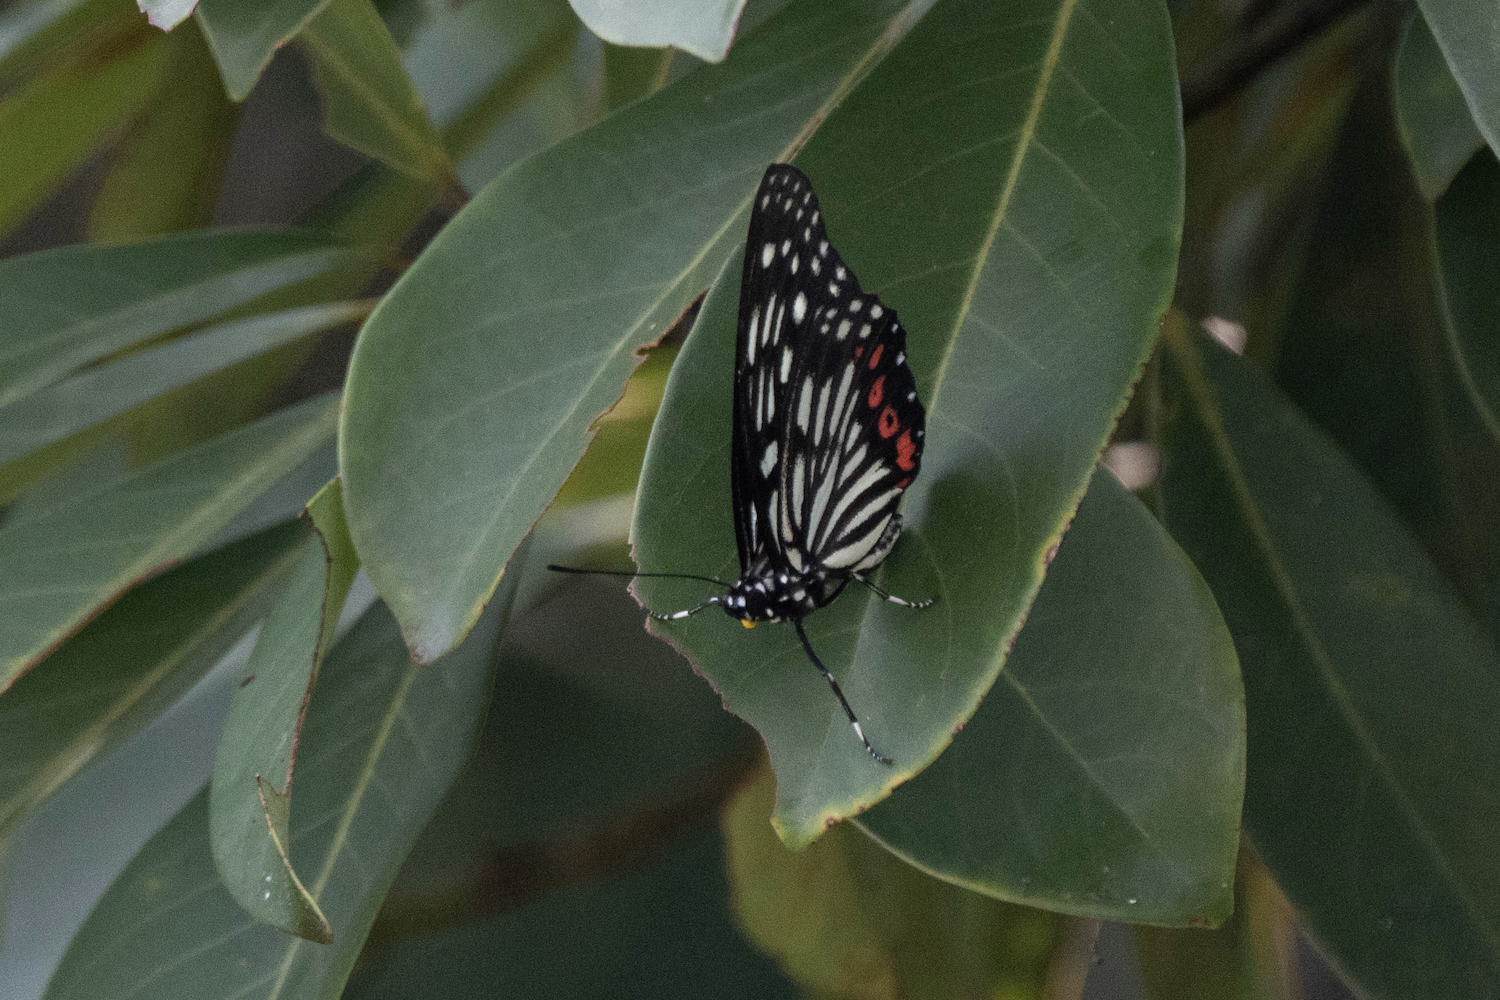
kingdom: Animalia
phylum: Arthropoda
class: Insecta
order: Lepidoptera
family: Nymphalidae
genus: Hestina
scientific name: Hestina assimilis
